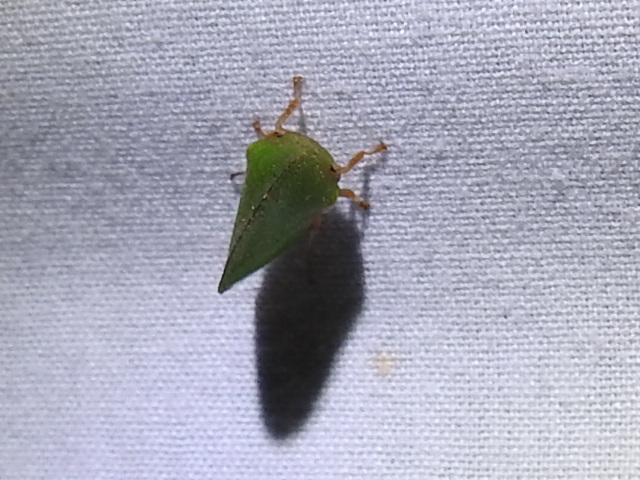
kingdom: Animalia
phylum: Arthropoda
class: Insecta
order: Hemiptera
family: Membracidae
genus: Archasia
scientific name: Archasia auriculata
